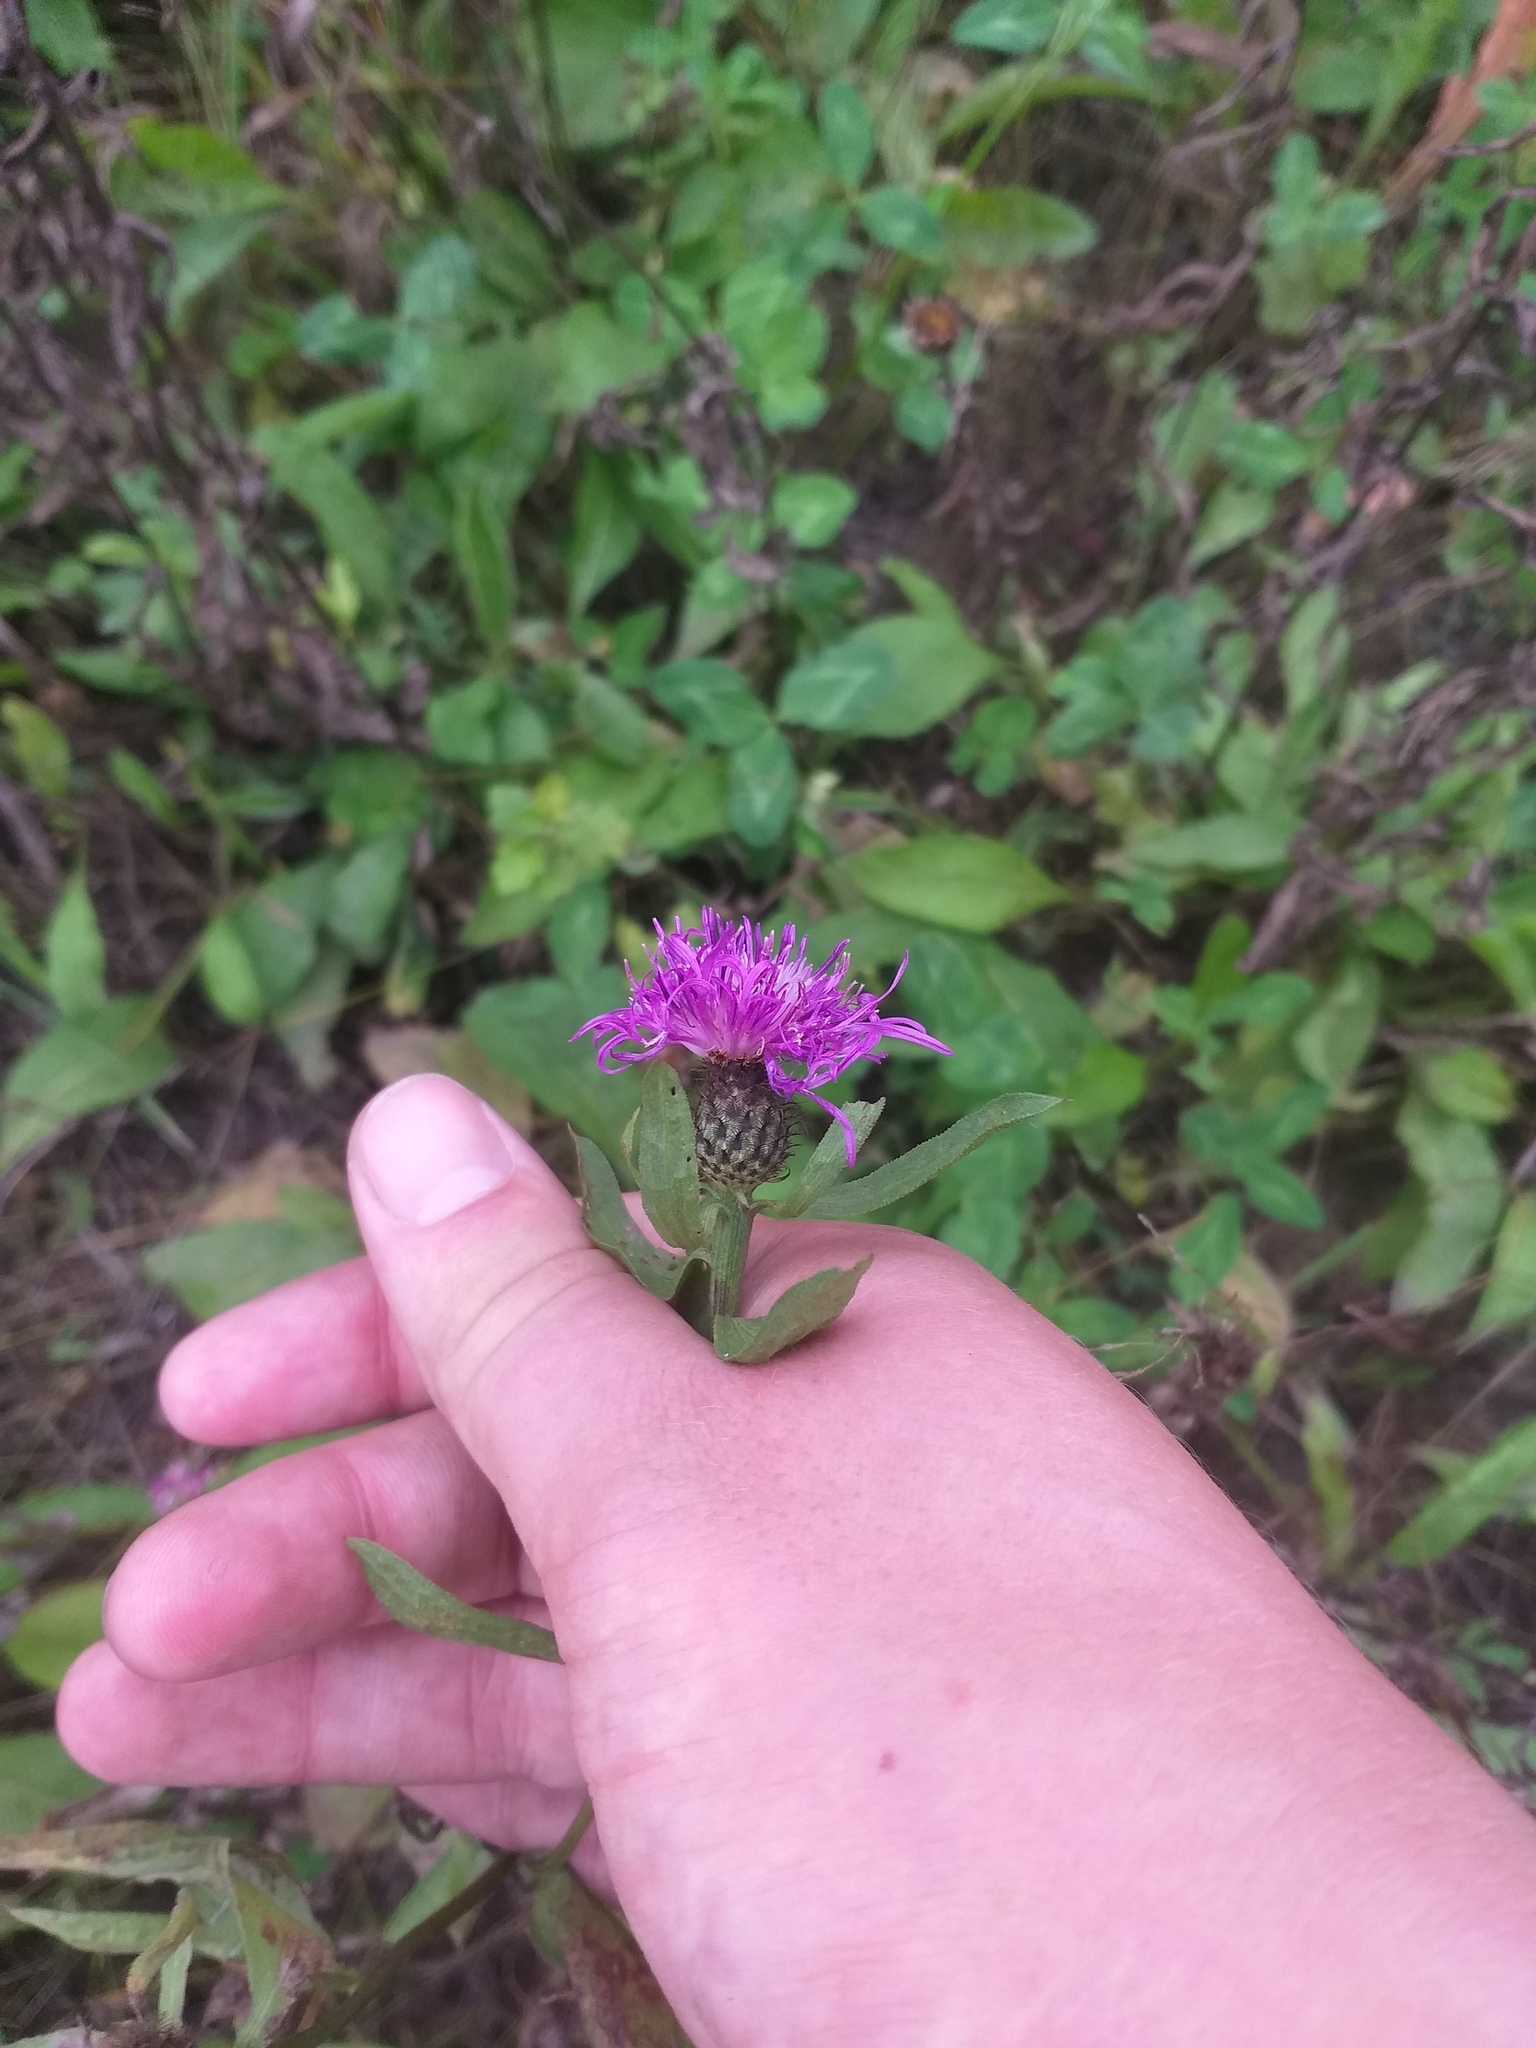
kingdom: Plantae
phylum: Tracheophyta
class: Magnoliopsida
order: Asterales
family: Asteraceae
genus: Centaurea
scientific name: Centaurea phrygia
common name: Wig knapweed
